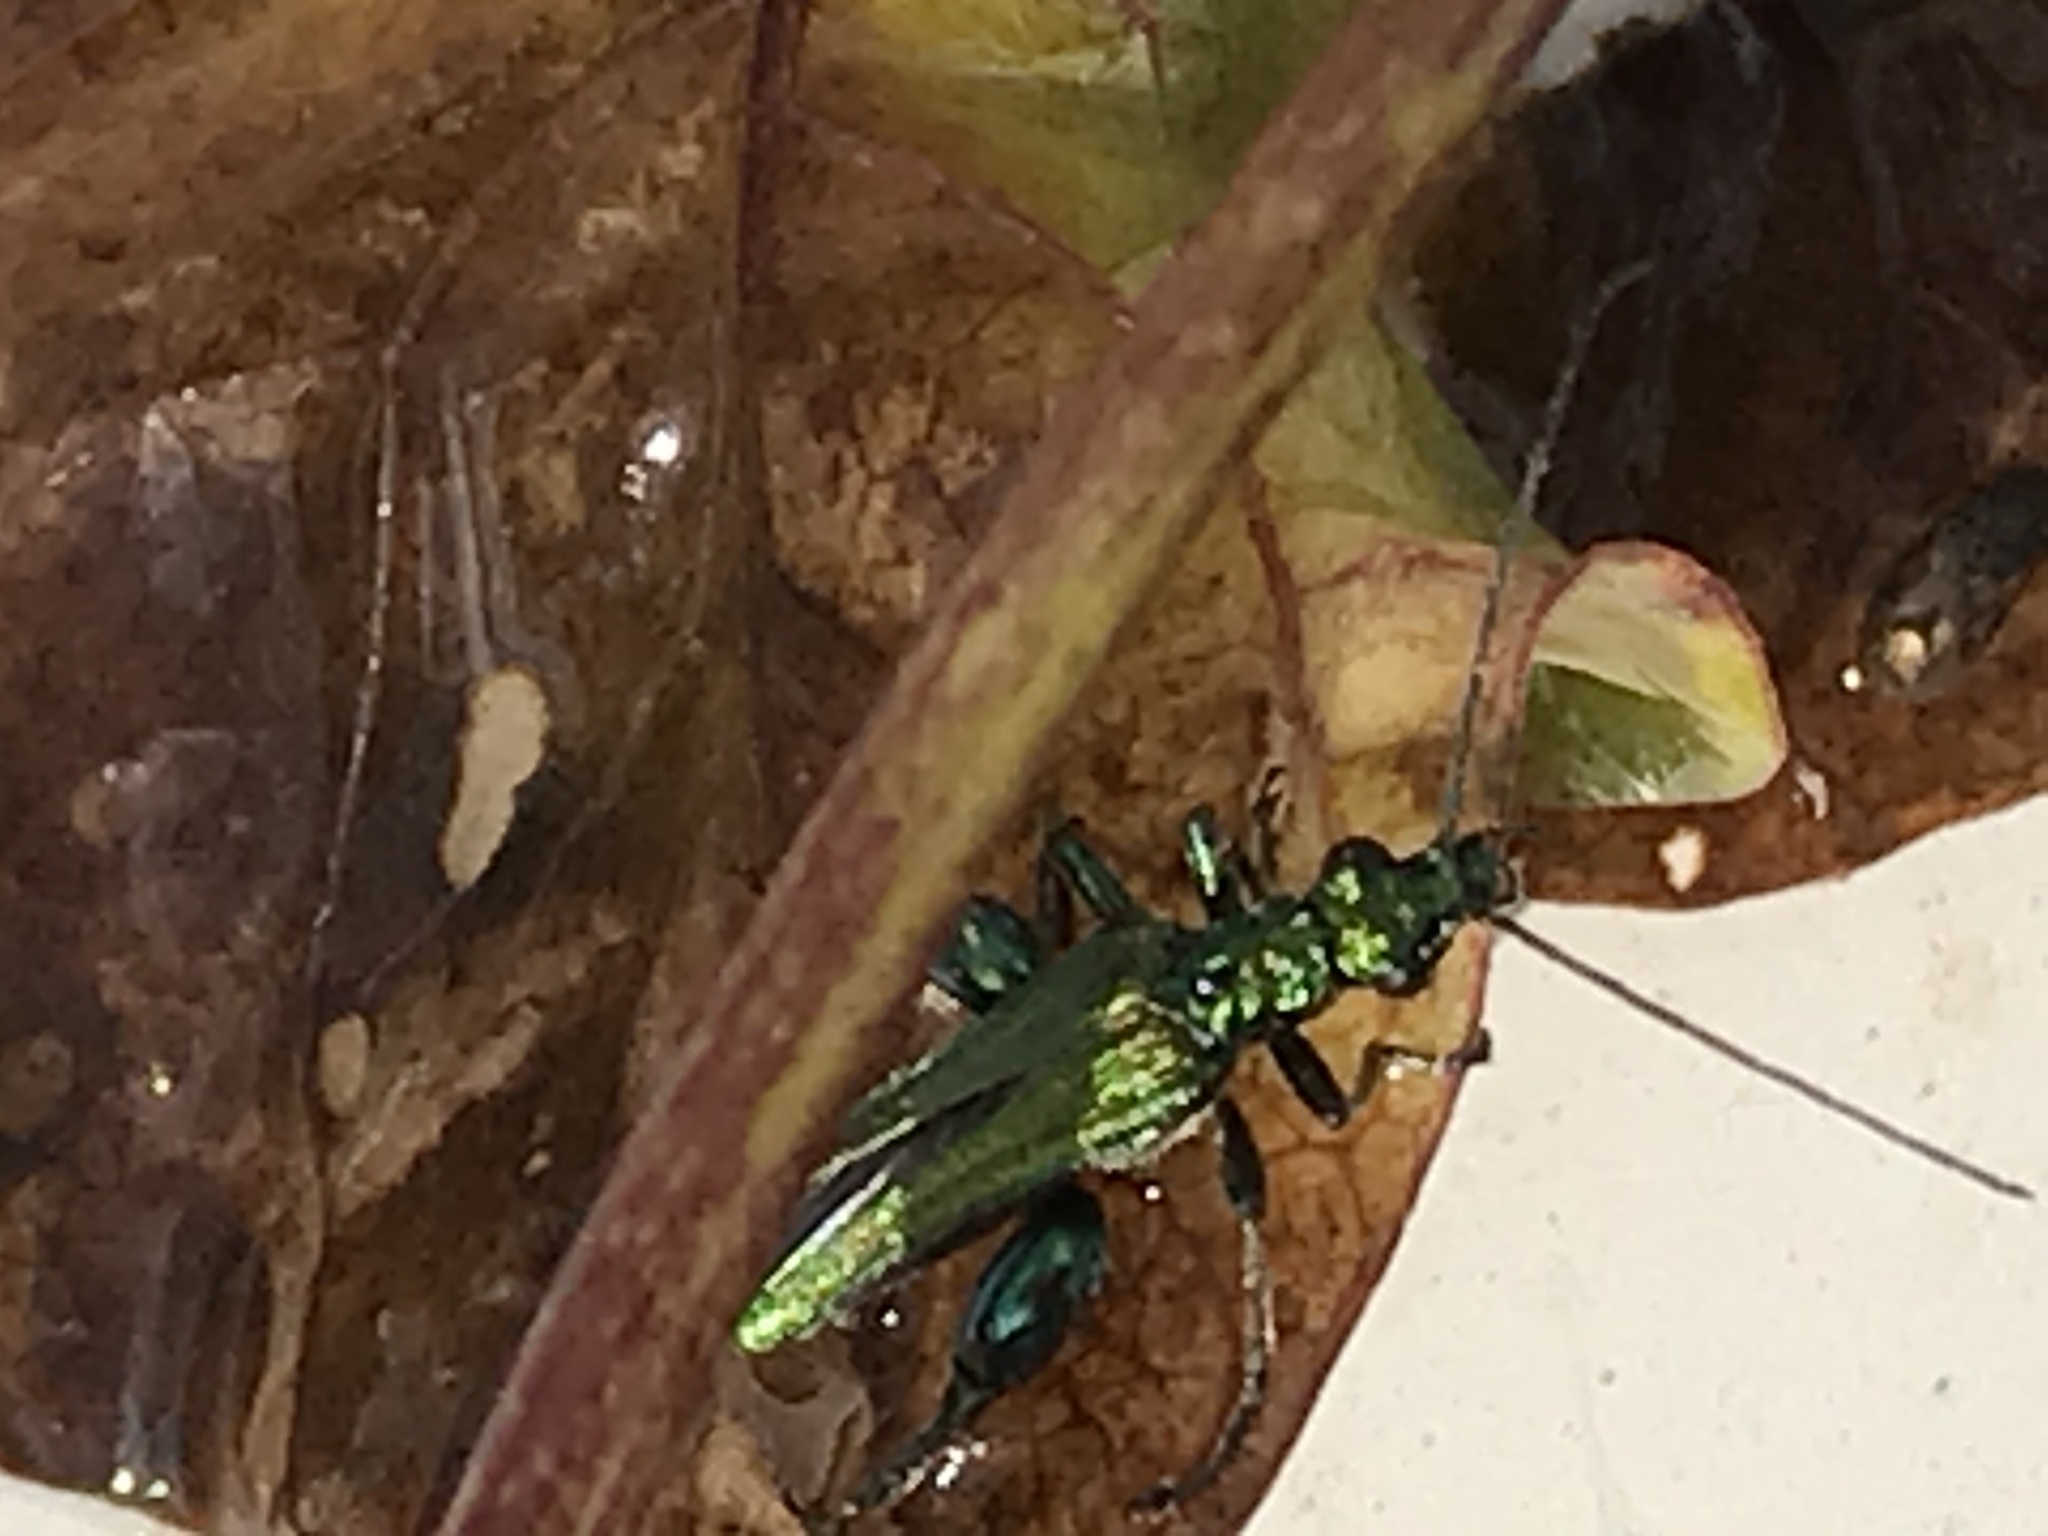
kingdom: Animalia
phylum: Arthropoda
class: Insecta
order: Coleoptera
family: Oedemeridae
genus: Oedemera
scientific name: Oedemera nobilis
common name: Swollen-thighed beetle
